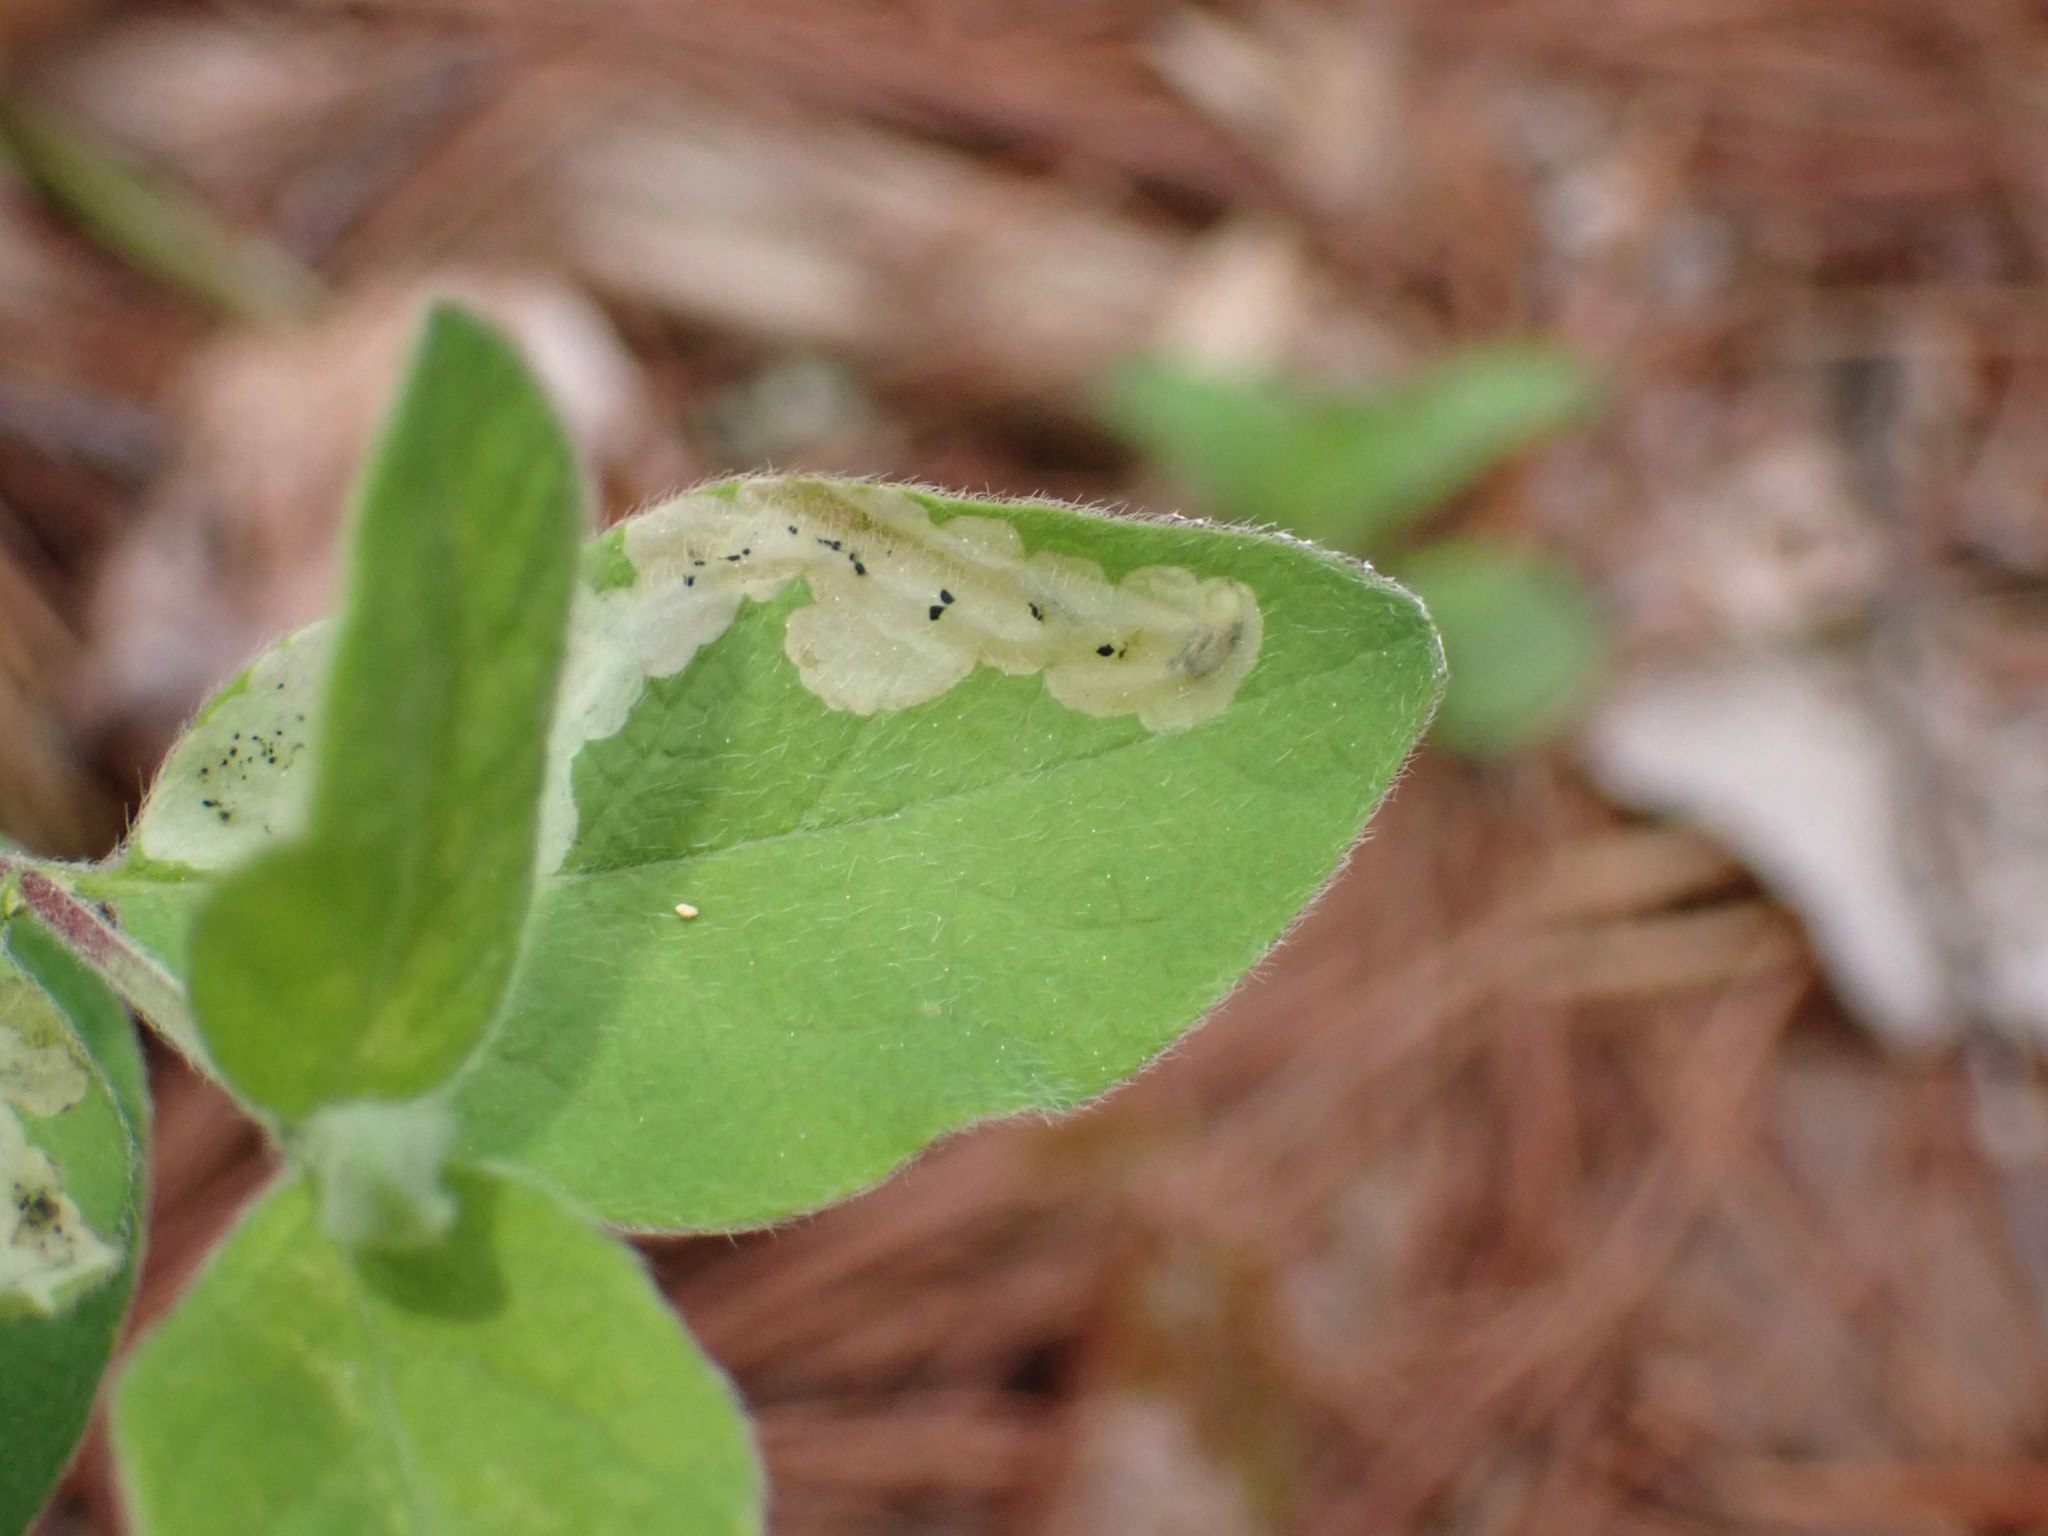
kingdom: Animalia
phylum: Arthropoda
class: Insecta
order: Diptera
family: Agromyzidae
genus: Aulagromyza
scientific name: Aulagromyza cornigera
